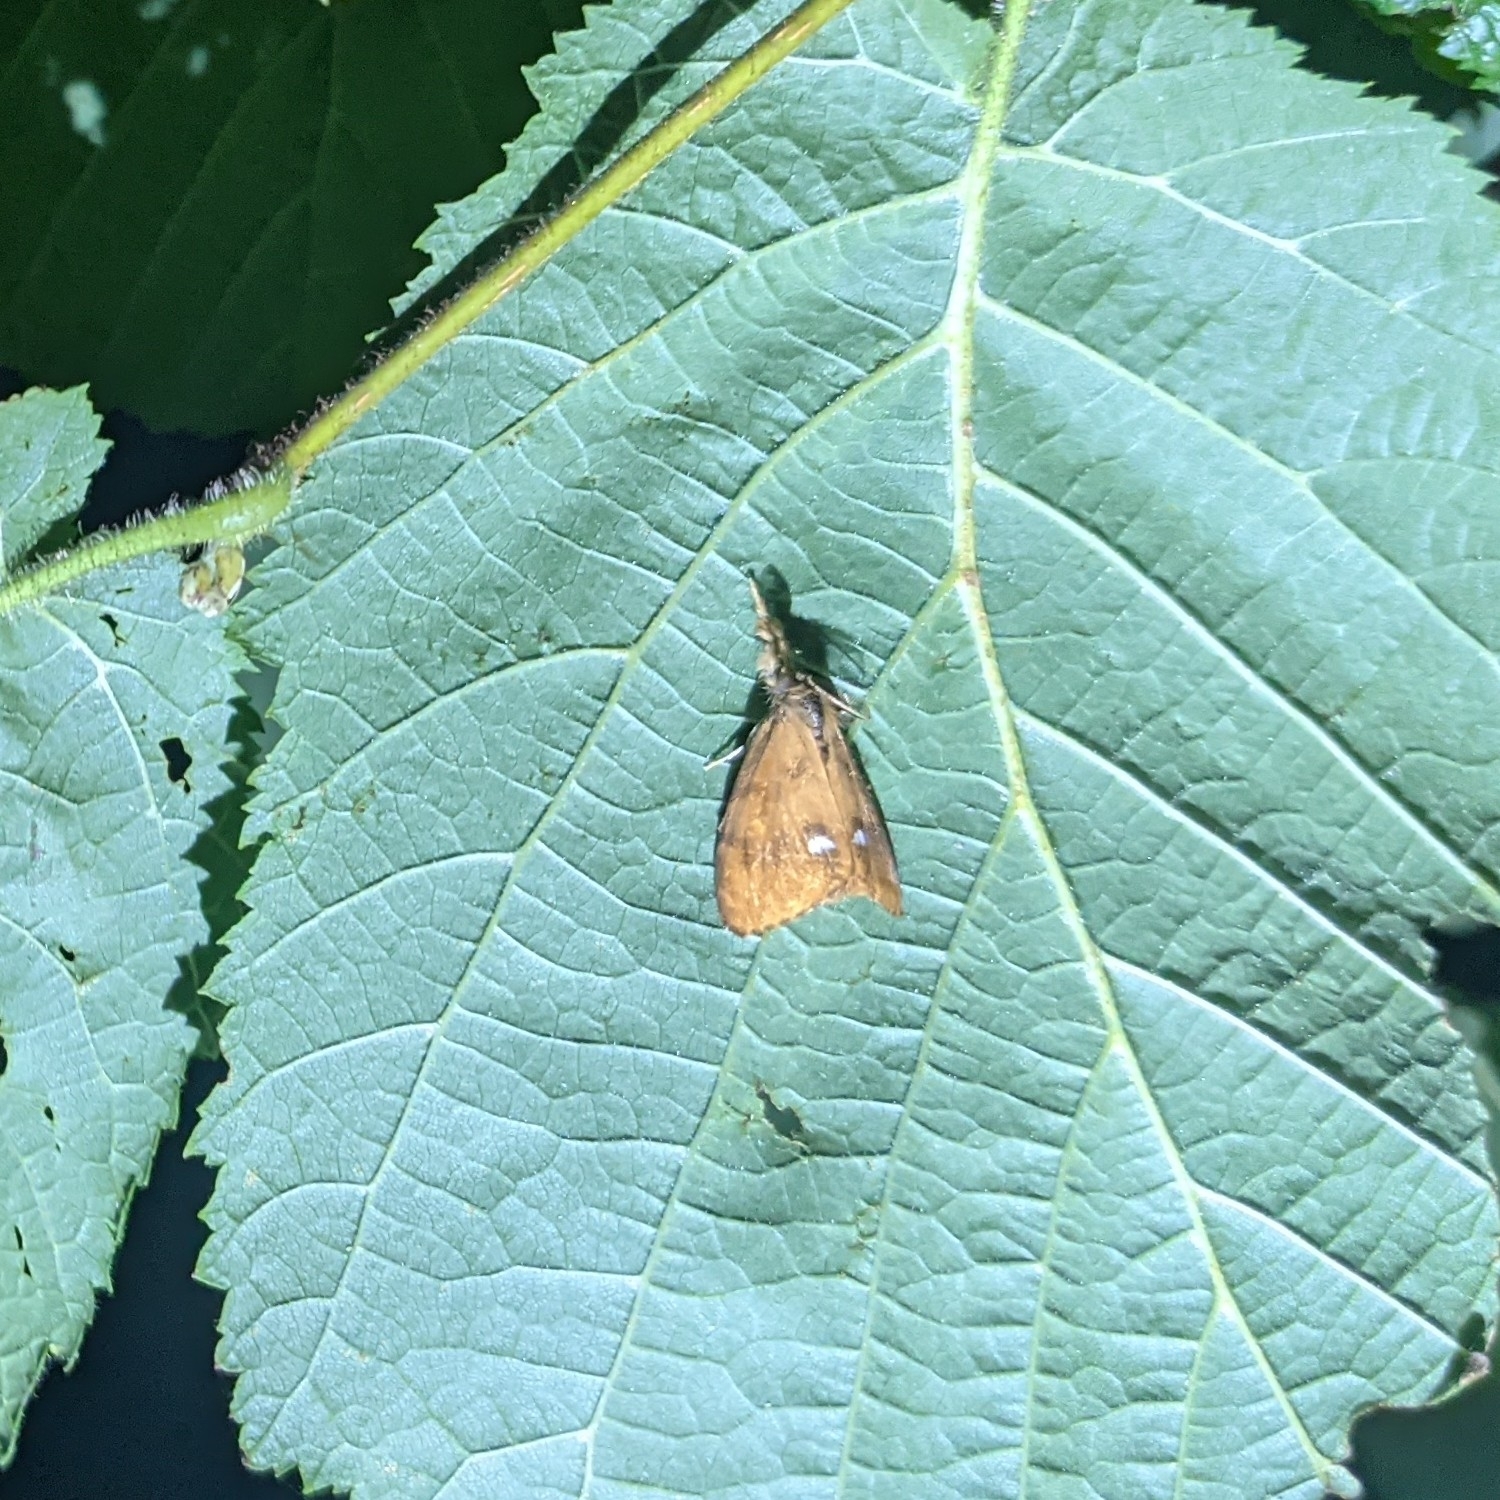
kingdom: Animalia
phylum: Arthropoda
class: Insecta
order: Lepidoptera
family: Erebidae
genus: Orgyia
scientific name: Orgyia antiqua
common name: Vapourer
